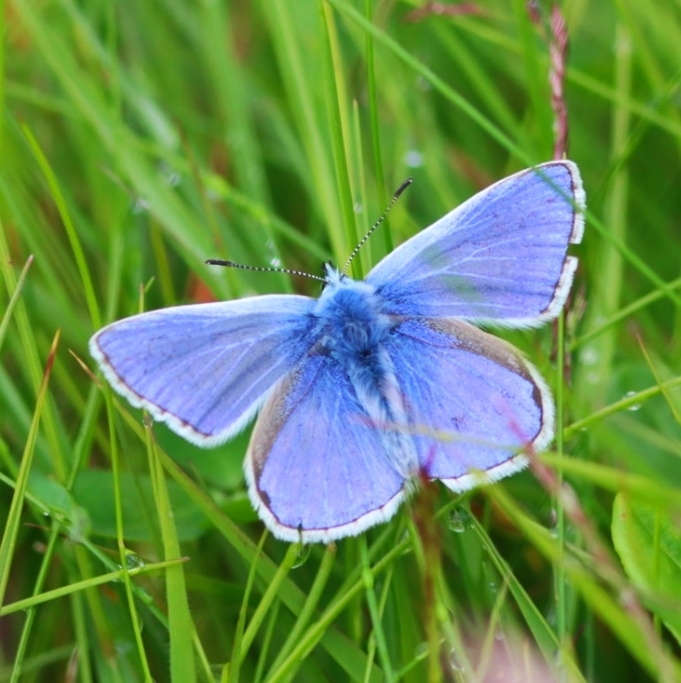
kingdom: Animalia
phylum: Arthropoda
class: Insecta
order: Lepidoptera
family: Lycaenidae
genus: Polyommatus
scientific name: Polyommatus icarus
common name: Common blue
